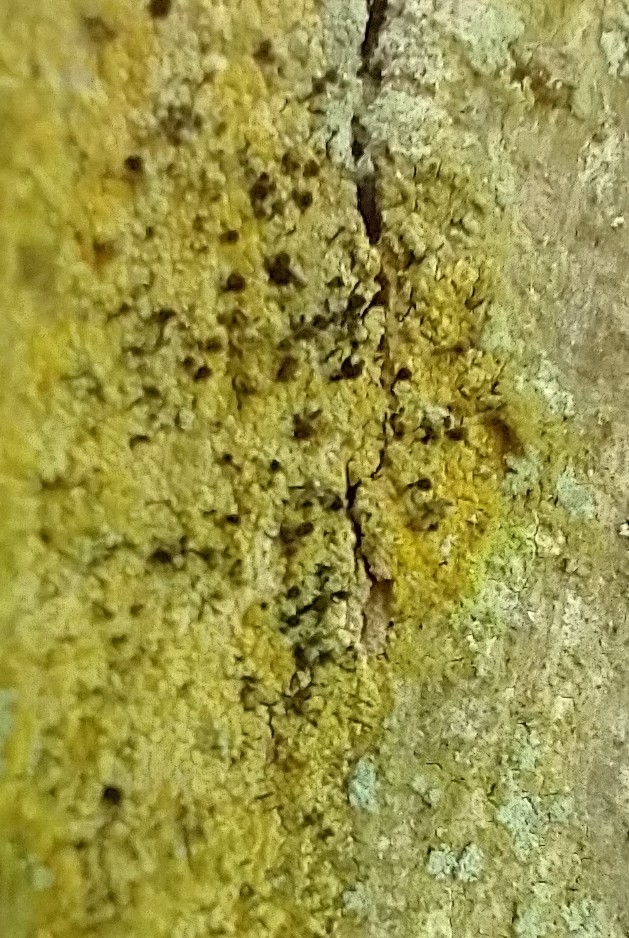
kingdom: Fungi
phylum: Ascomycota
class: Coniocybomycetes
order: Coniocybales
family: Coniocybaceae
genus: Chaenotheca
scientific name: Chaenotheca ferruginea
